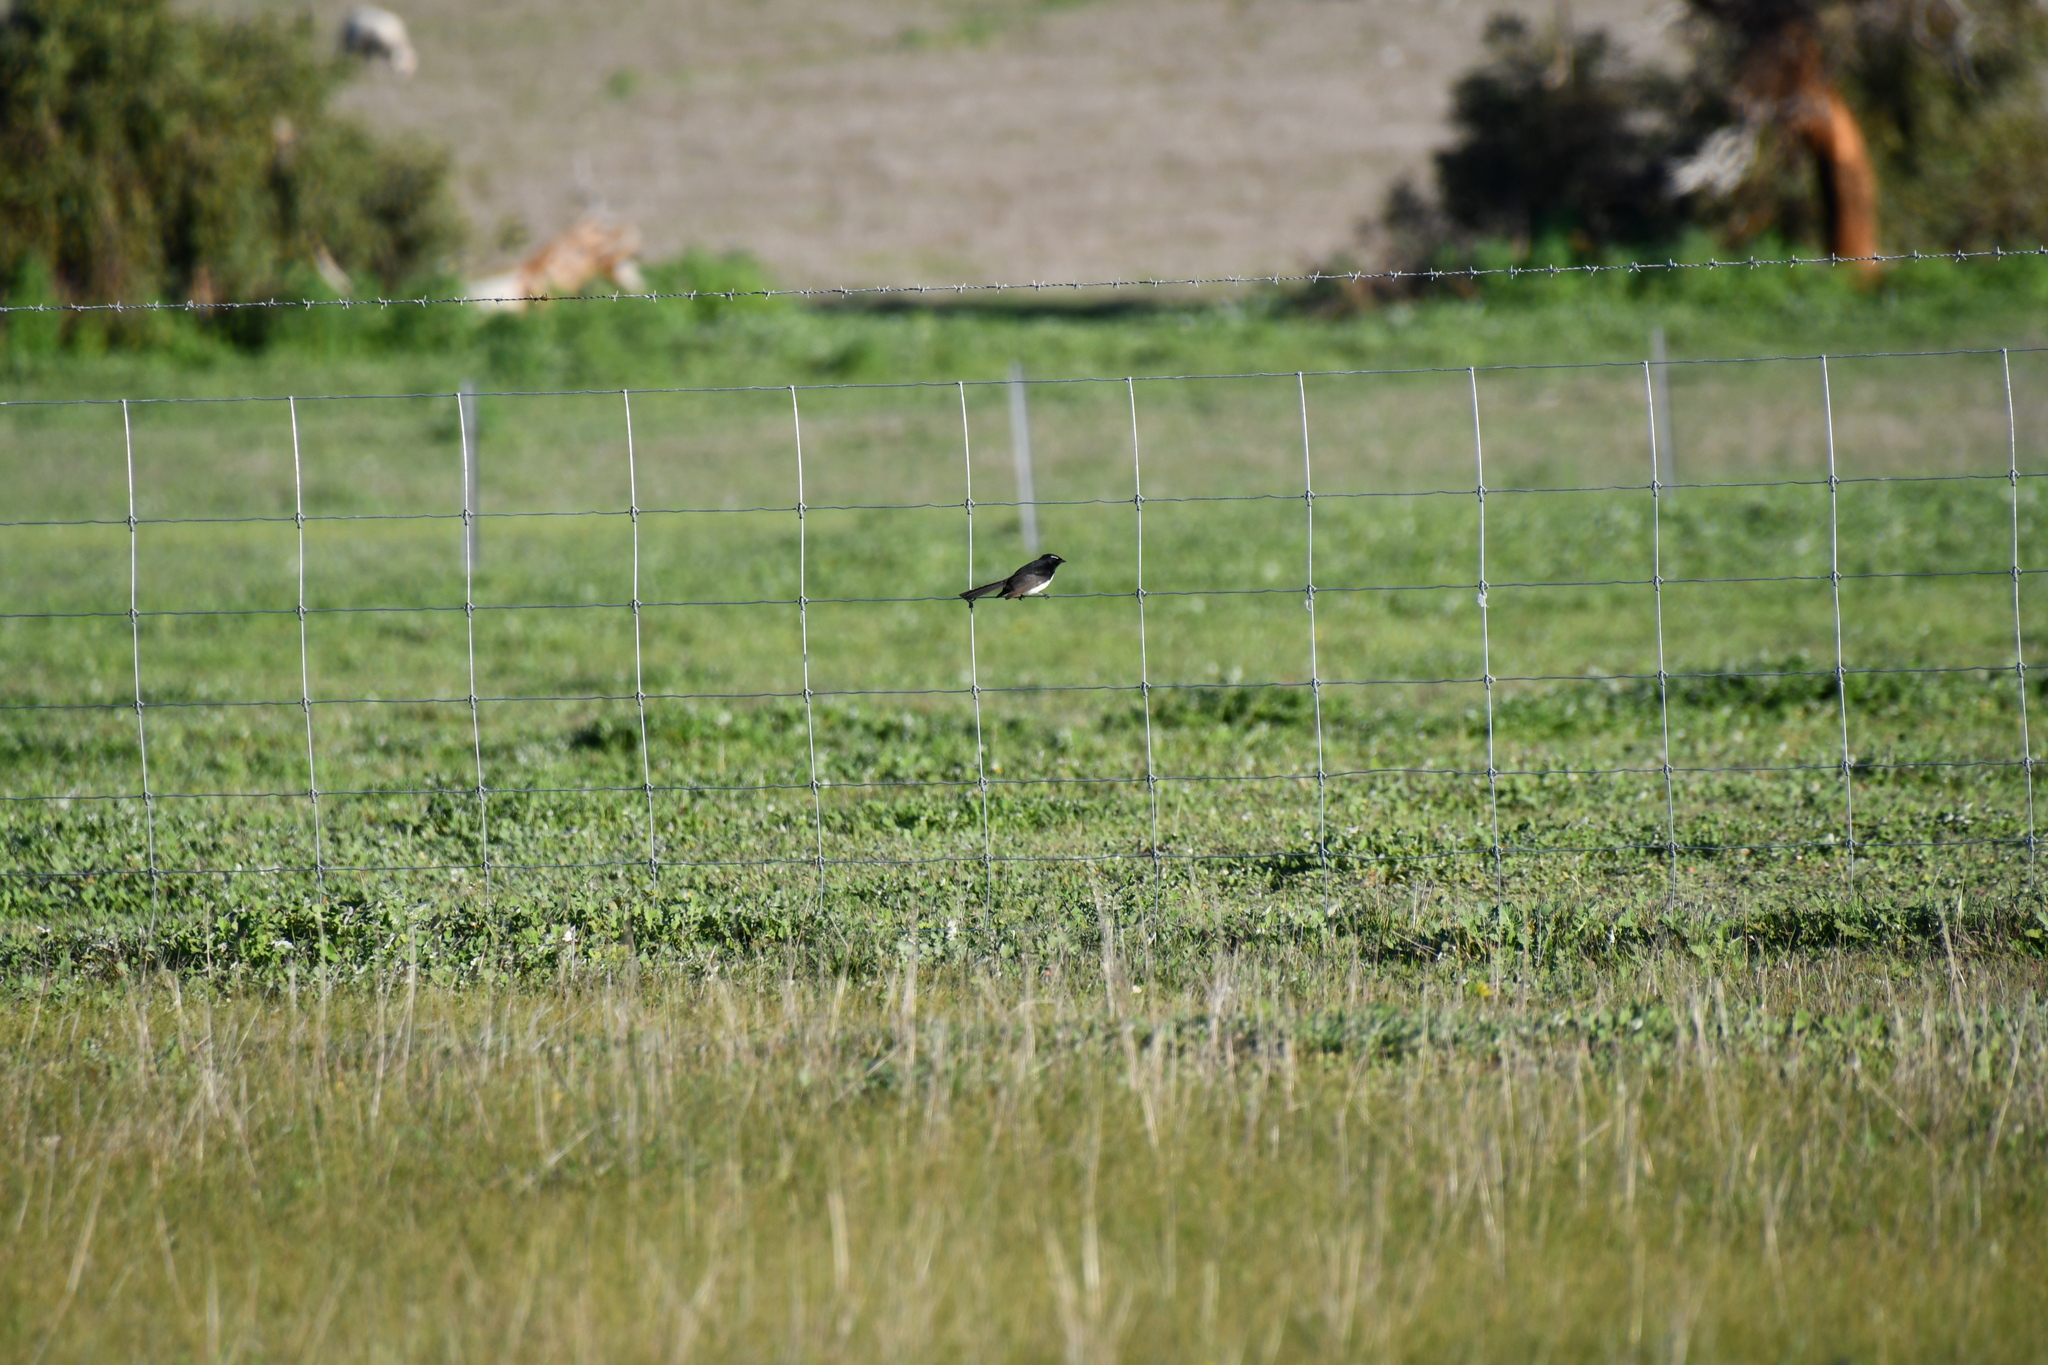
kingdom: Animalia
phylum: Chordata
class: Aves
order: Passeriformes
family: Rhipiduridae
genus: Rhipidura
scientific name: Rhipidura leucophrys
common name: Willie wagtail
